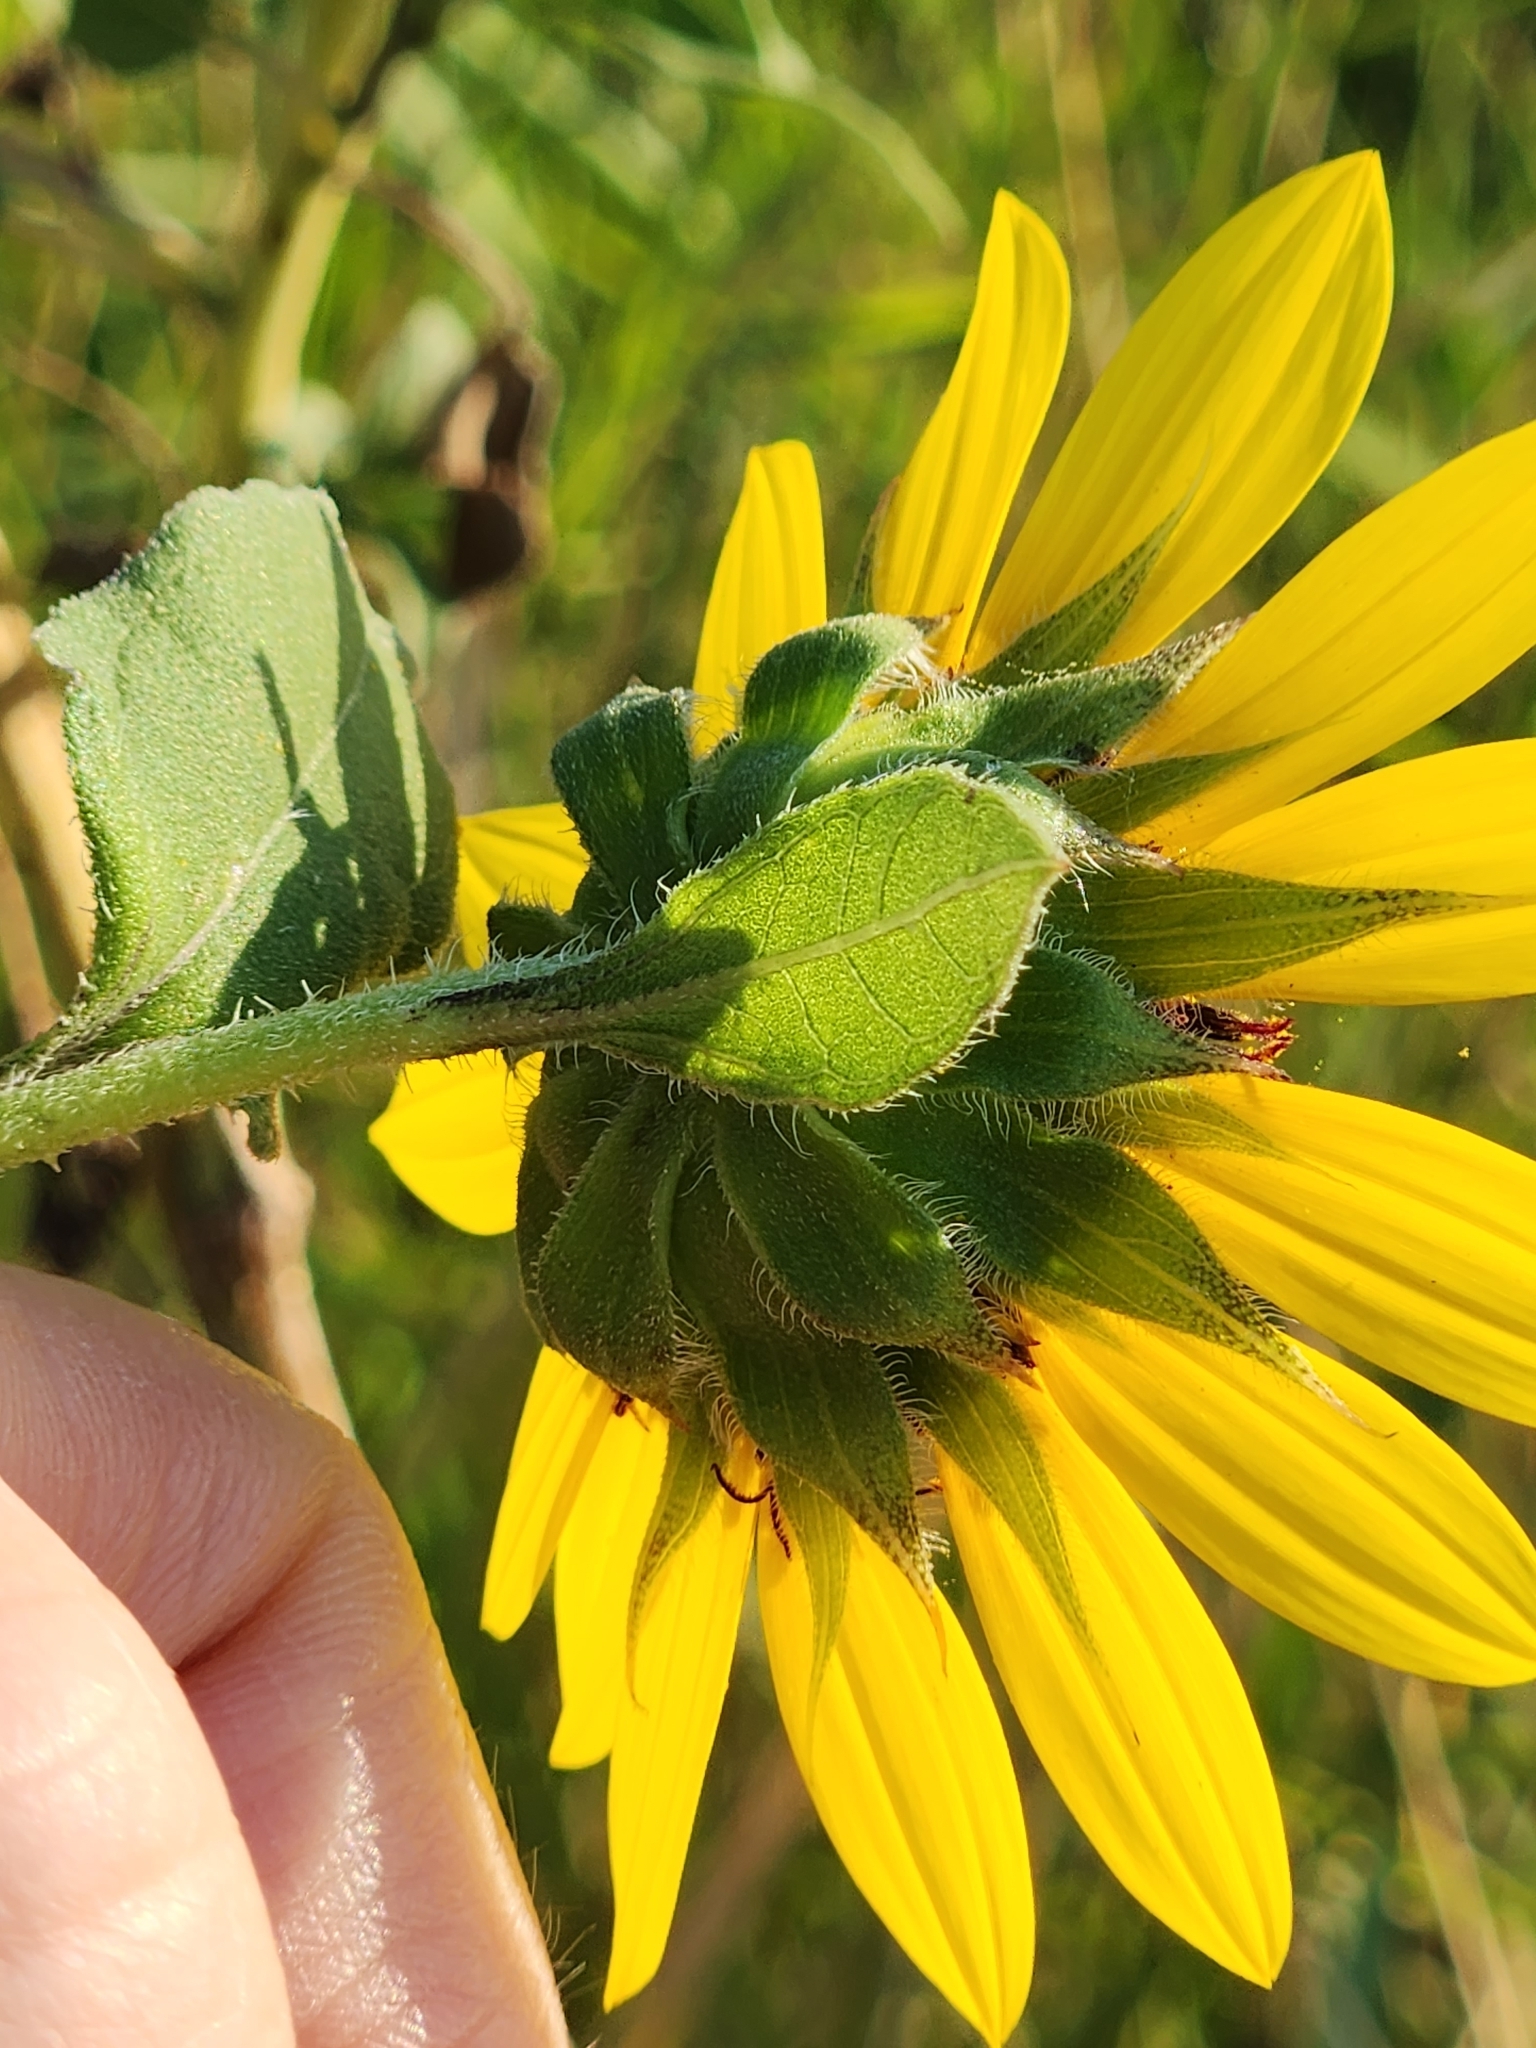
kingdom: Plantae
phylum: Tracheophyta
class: Magnoliopsida
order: Asterales
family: Asteraceae
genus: Helianthus
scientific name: Helianthus annuus
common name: Sunflower
